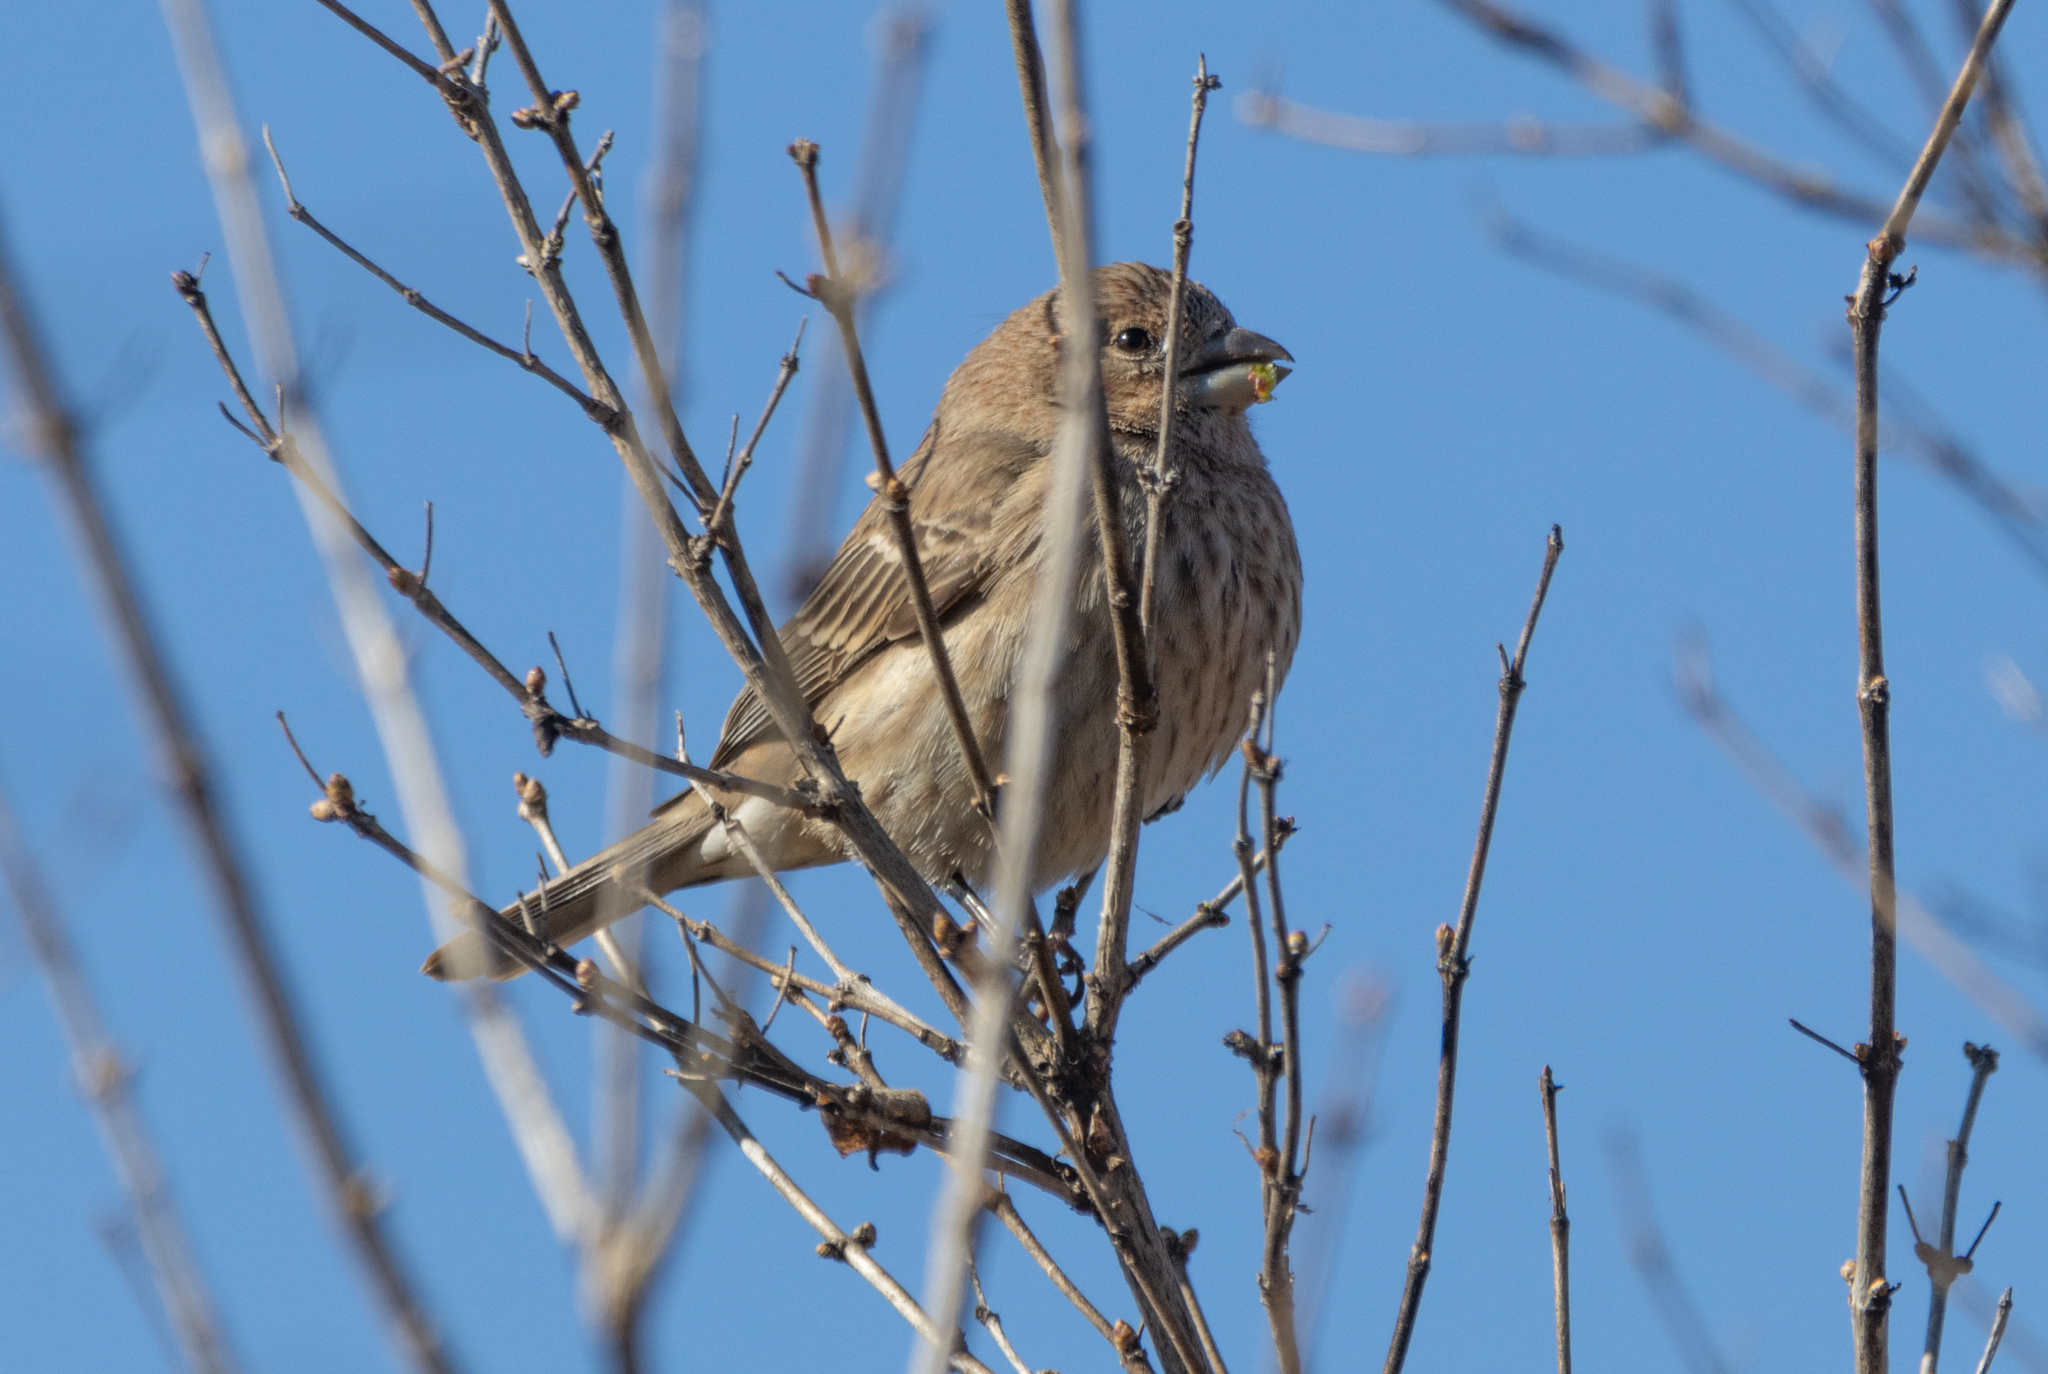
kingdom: Animalia
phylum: Chordata
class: Aves
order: Passeriformes
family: Fringillidae
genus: Haemorhous
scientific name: Haemorhous mexicanus
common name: House finch
